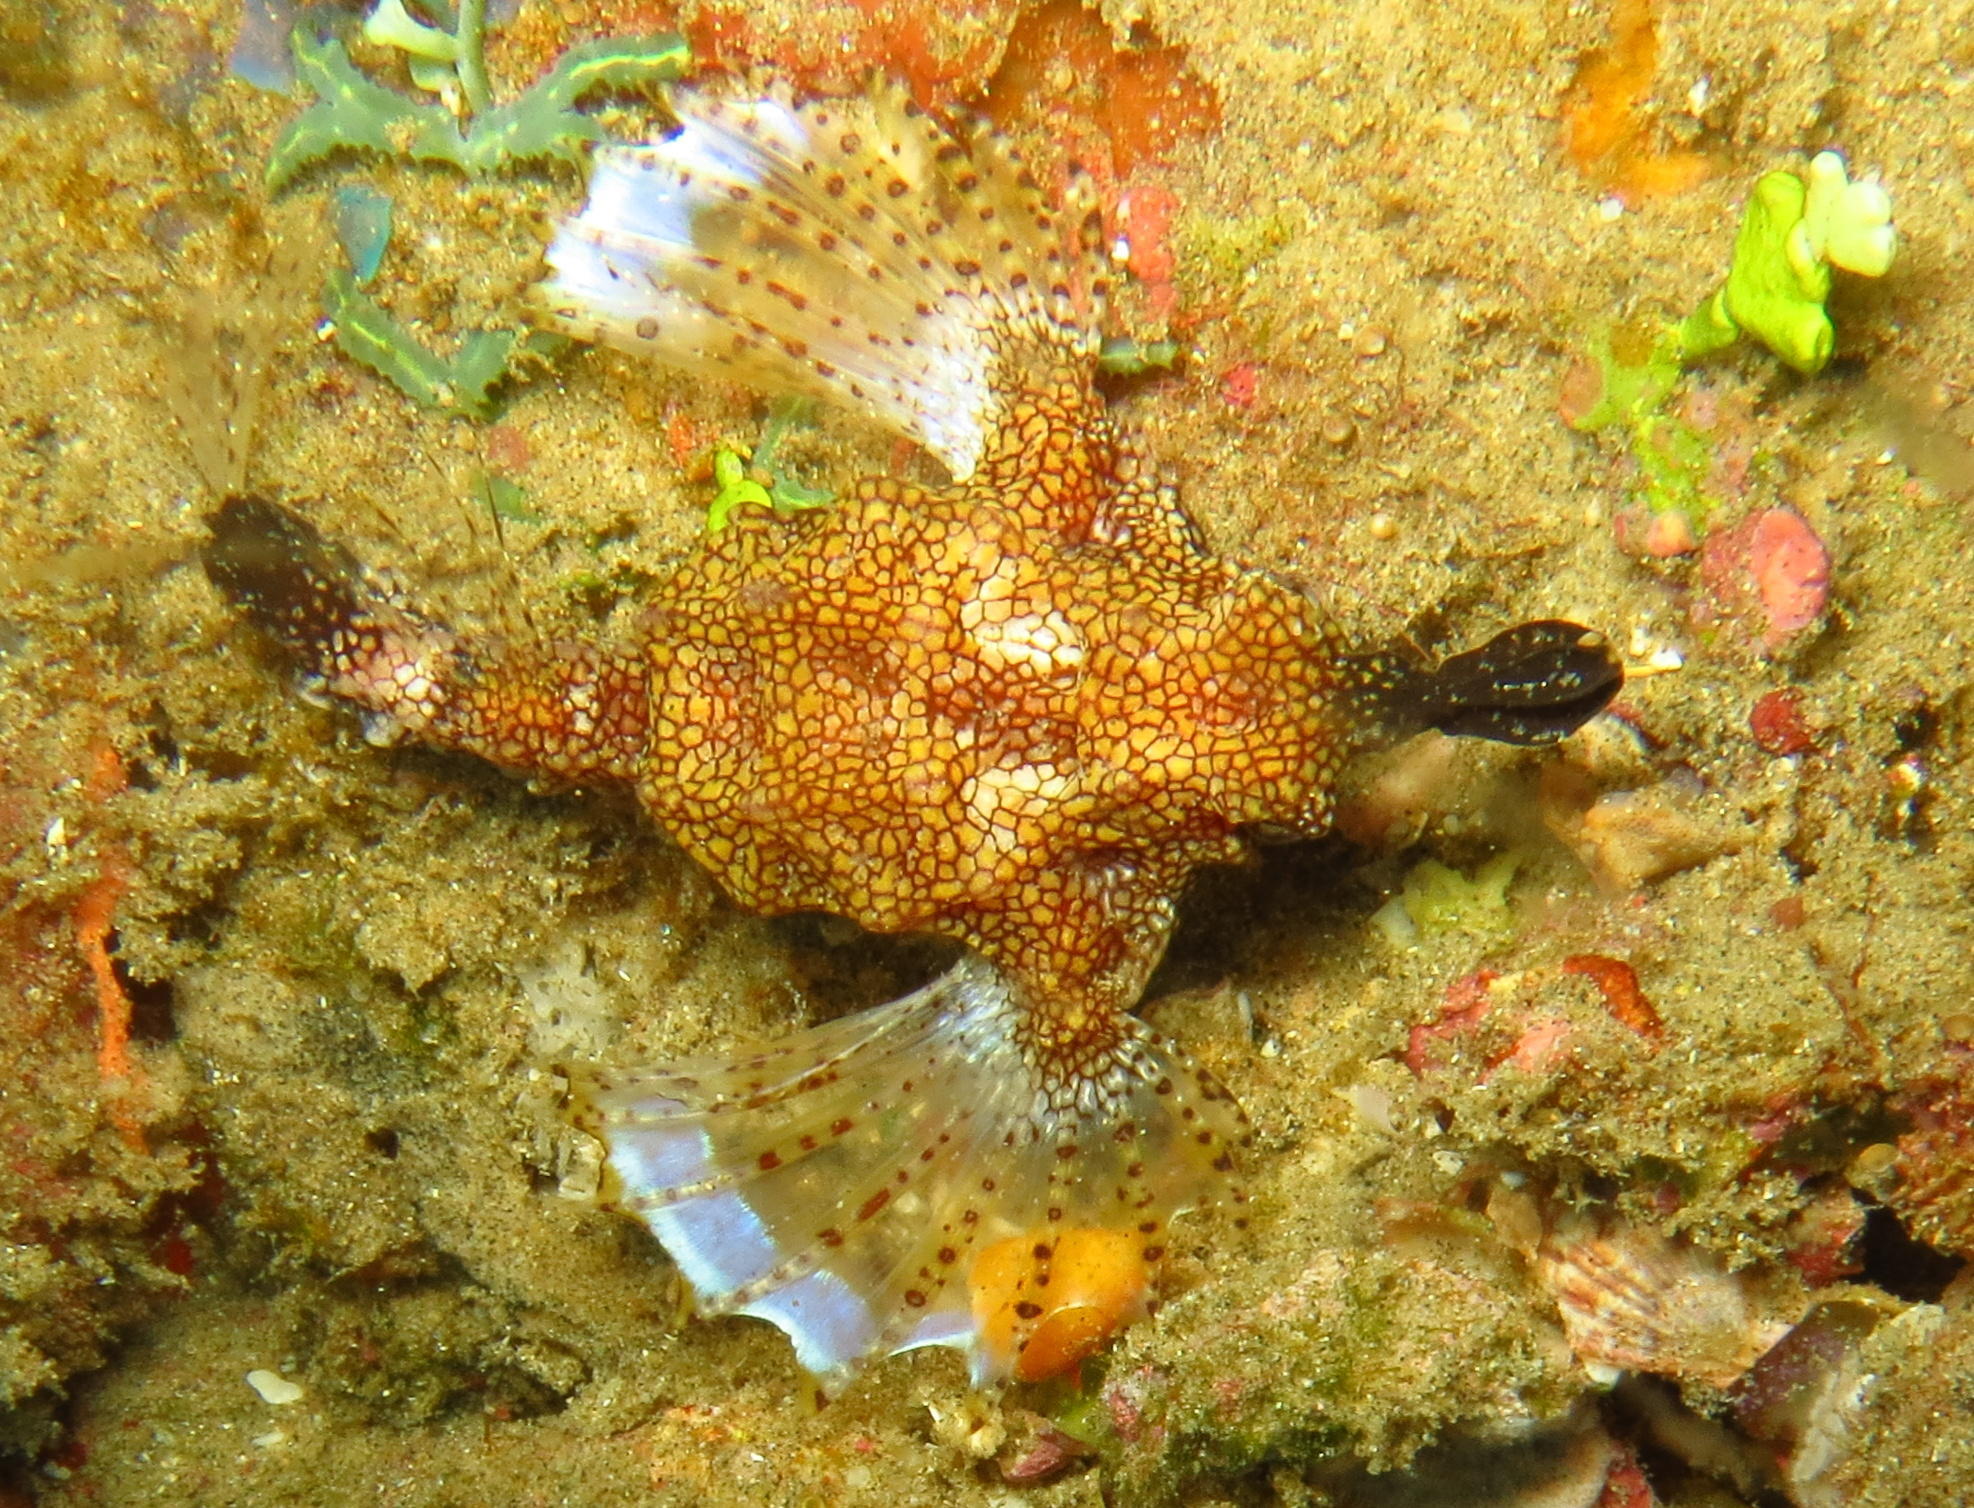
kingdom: Animalia
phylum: Chordata
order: Gasterosteiformes
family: Pegasidae
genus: Eurypegasus
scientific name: Eurypegasus draconis
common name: Short dragonfish
